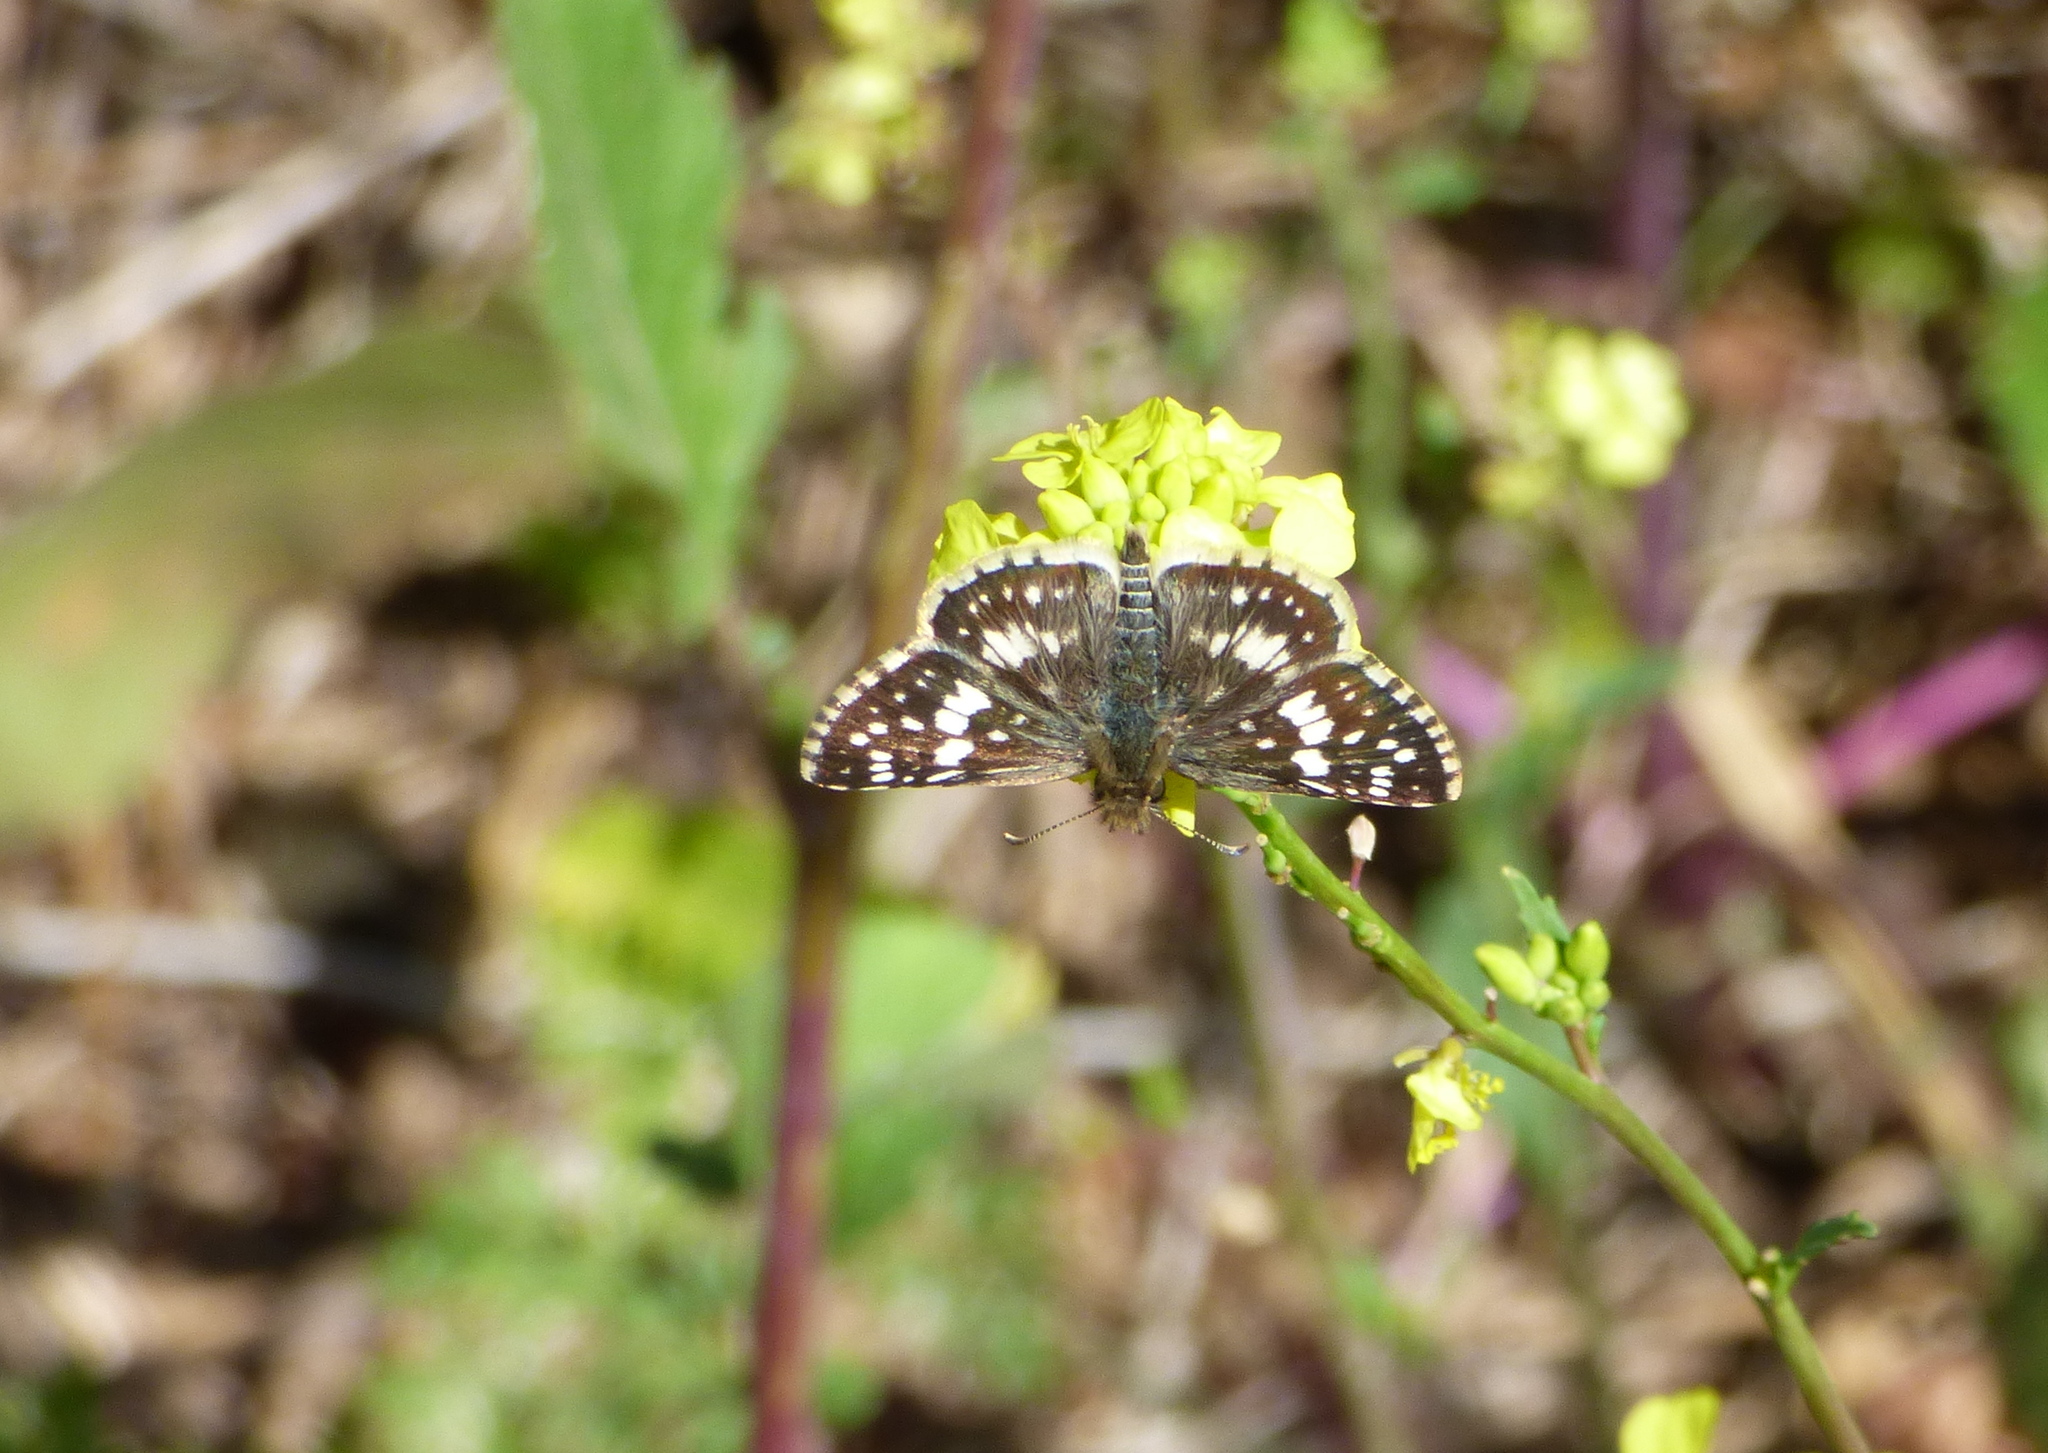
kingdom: Animalia
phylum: Arthropoda
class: Insecta
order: Lepidoptera
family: Hesperiidae
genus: Burnsius
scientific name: Burnsius orcynoides
